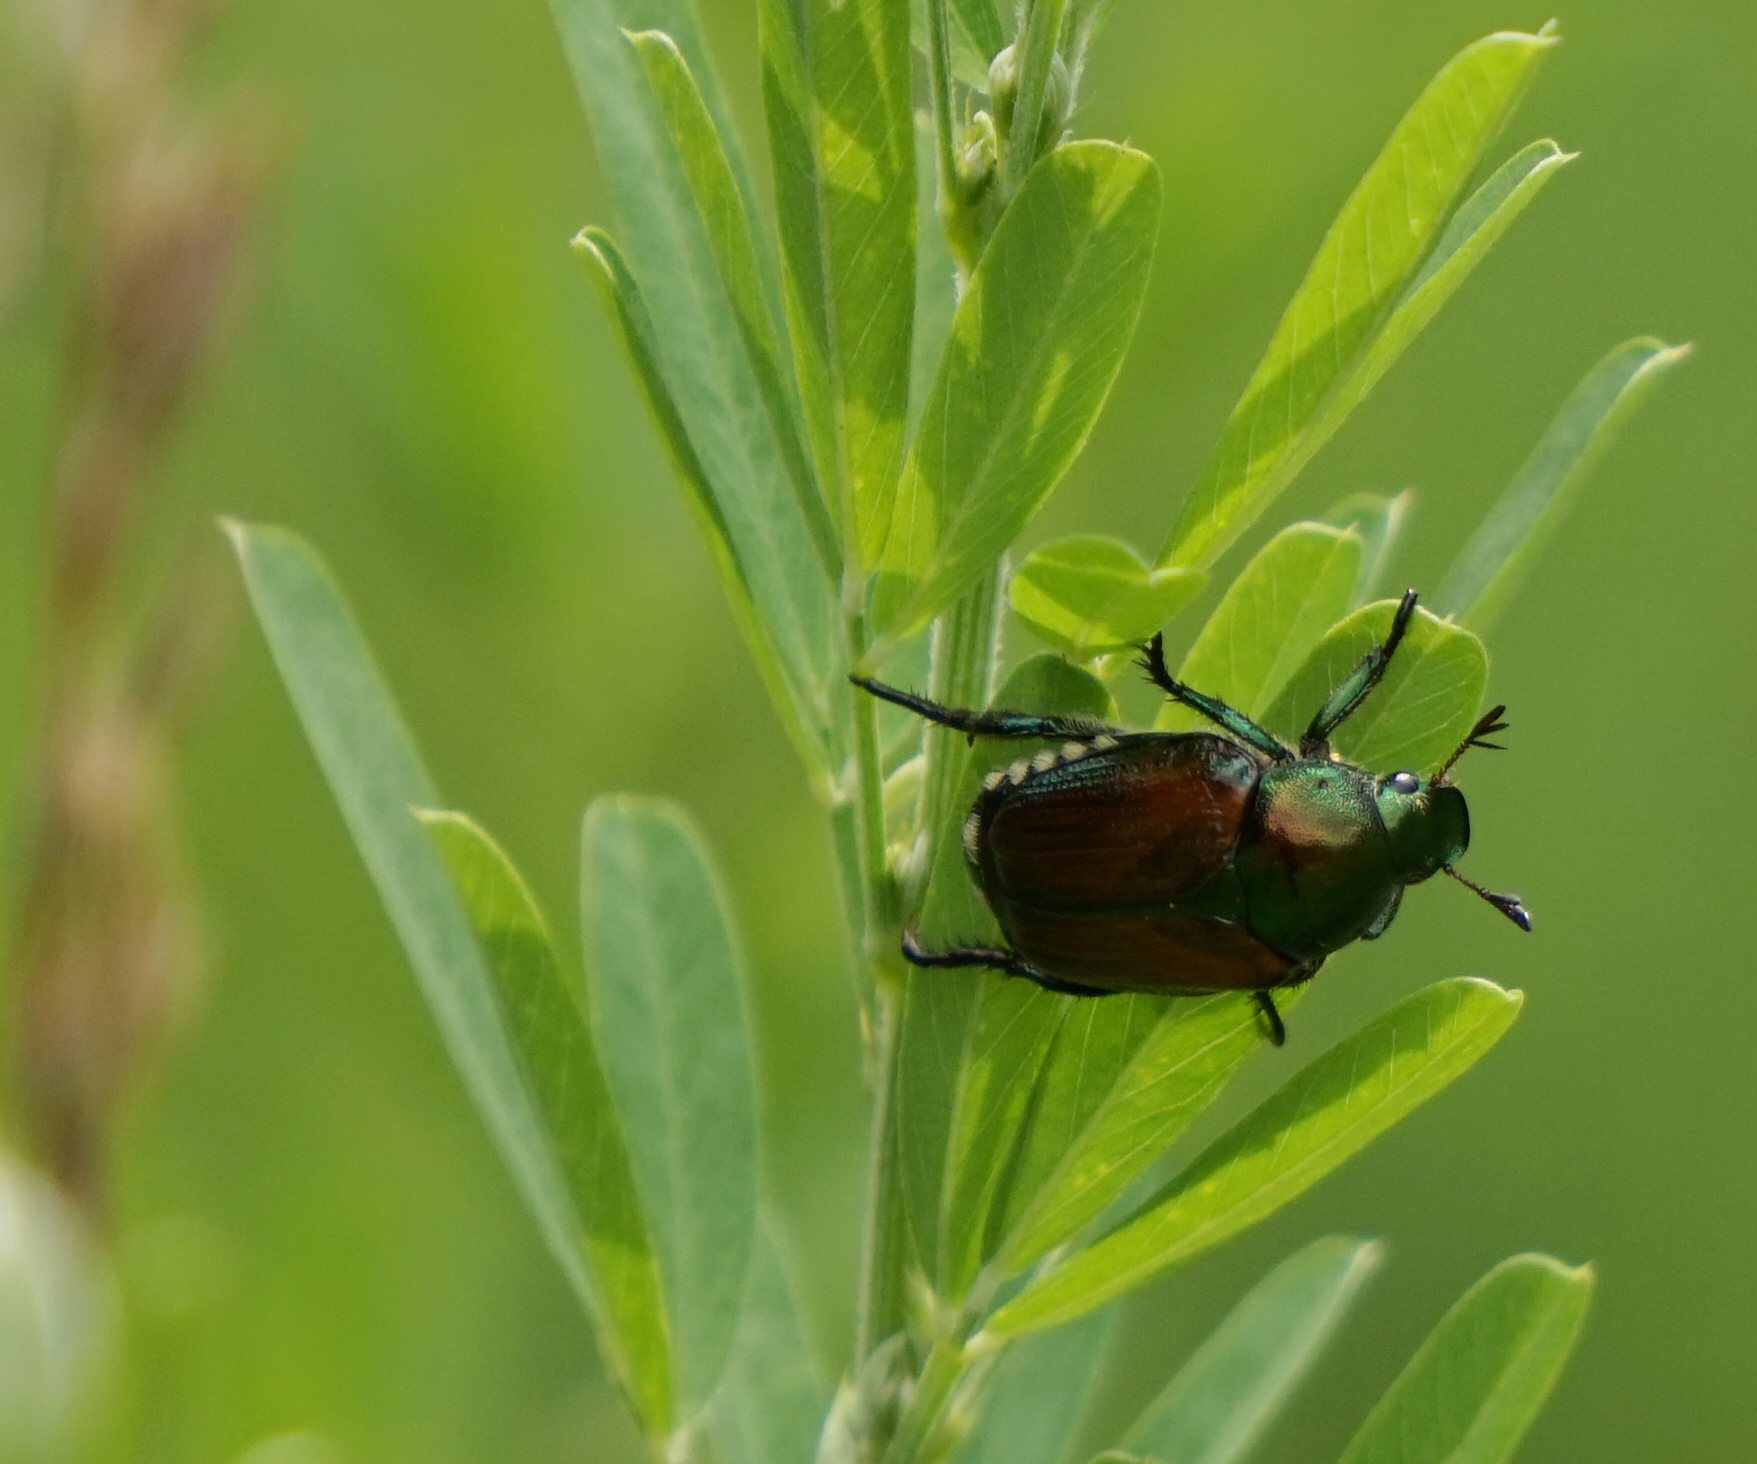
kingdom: Animalia
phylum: Arthropoda
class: Insecta
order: Coleoptera
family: Scarabaeidae
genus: Popillia
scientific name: Popillia japonica
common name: Japanese beetle
